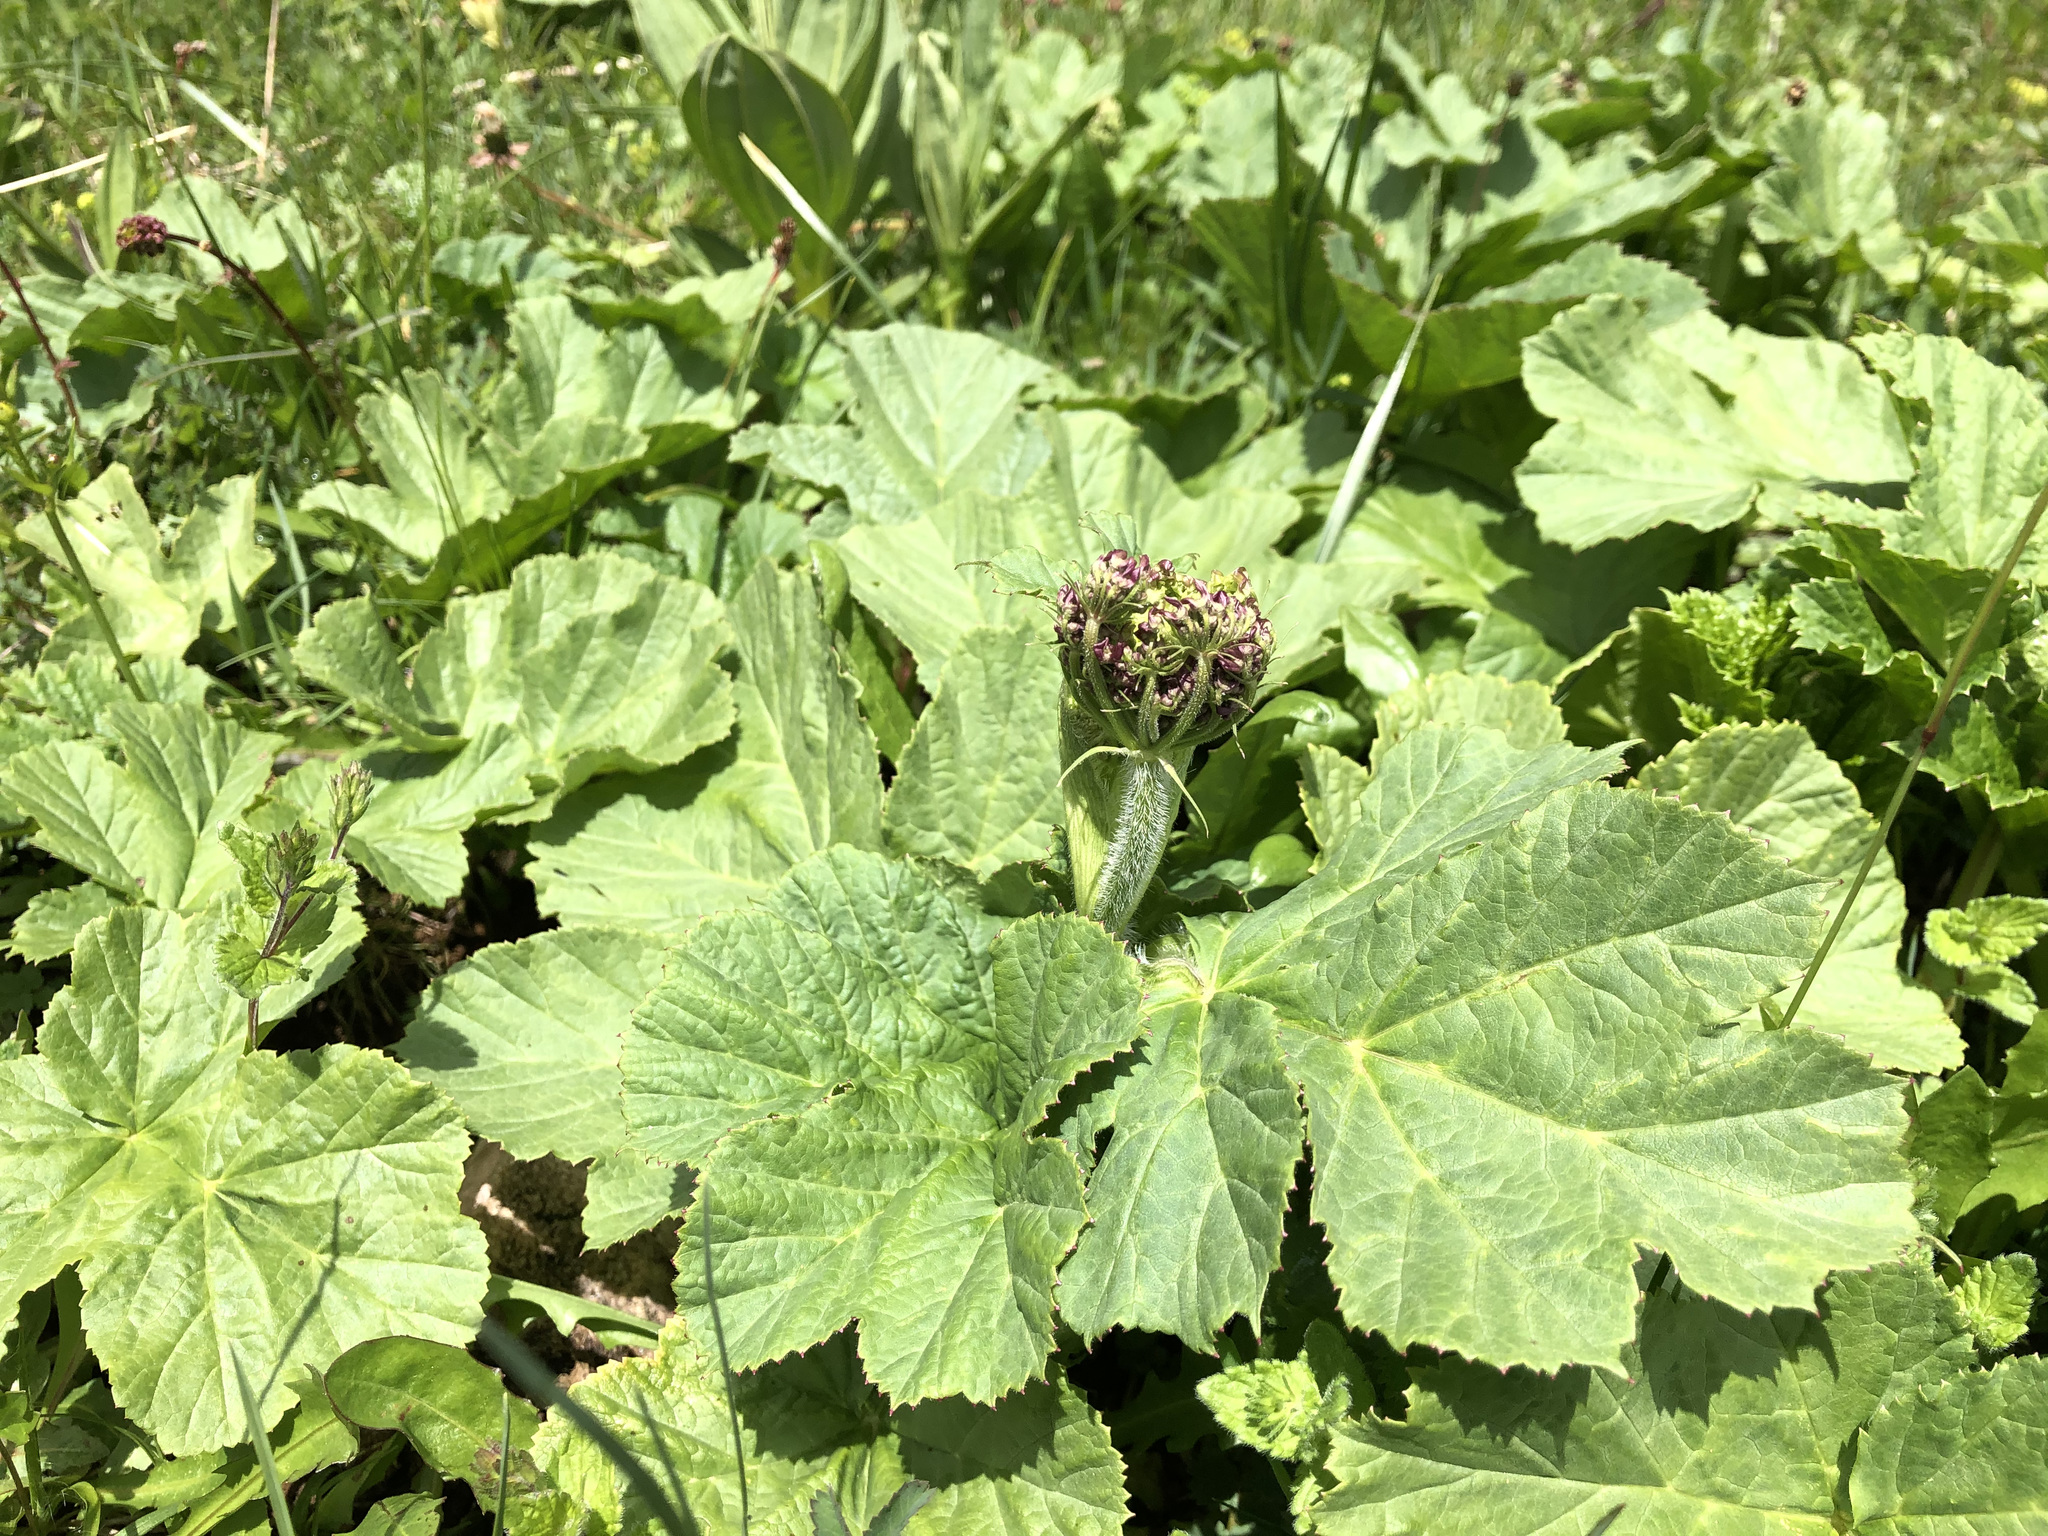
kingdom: Plantae
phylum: Tracheophyta
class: Magnoliopsida
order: Apiales
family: Apiaceae
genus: Heracleum
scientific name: Heracleum sphondylium
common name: Hogweed
